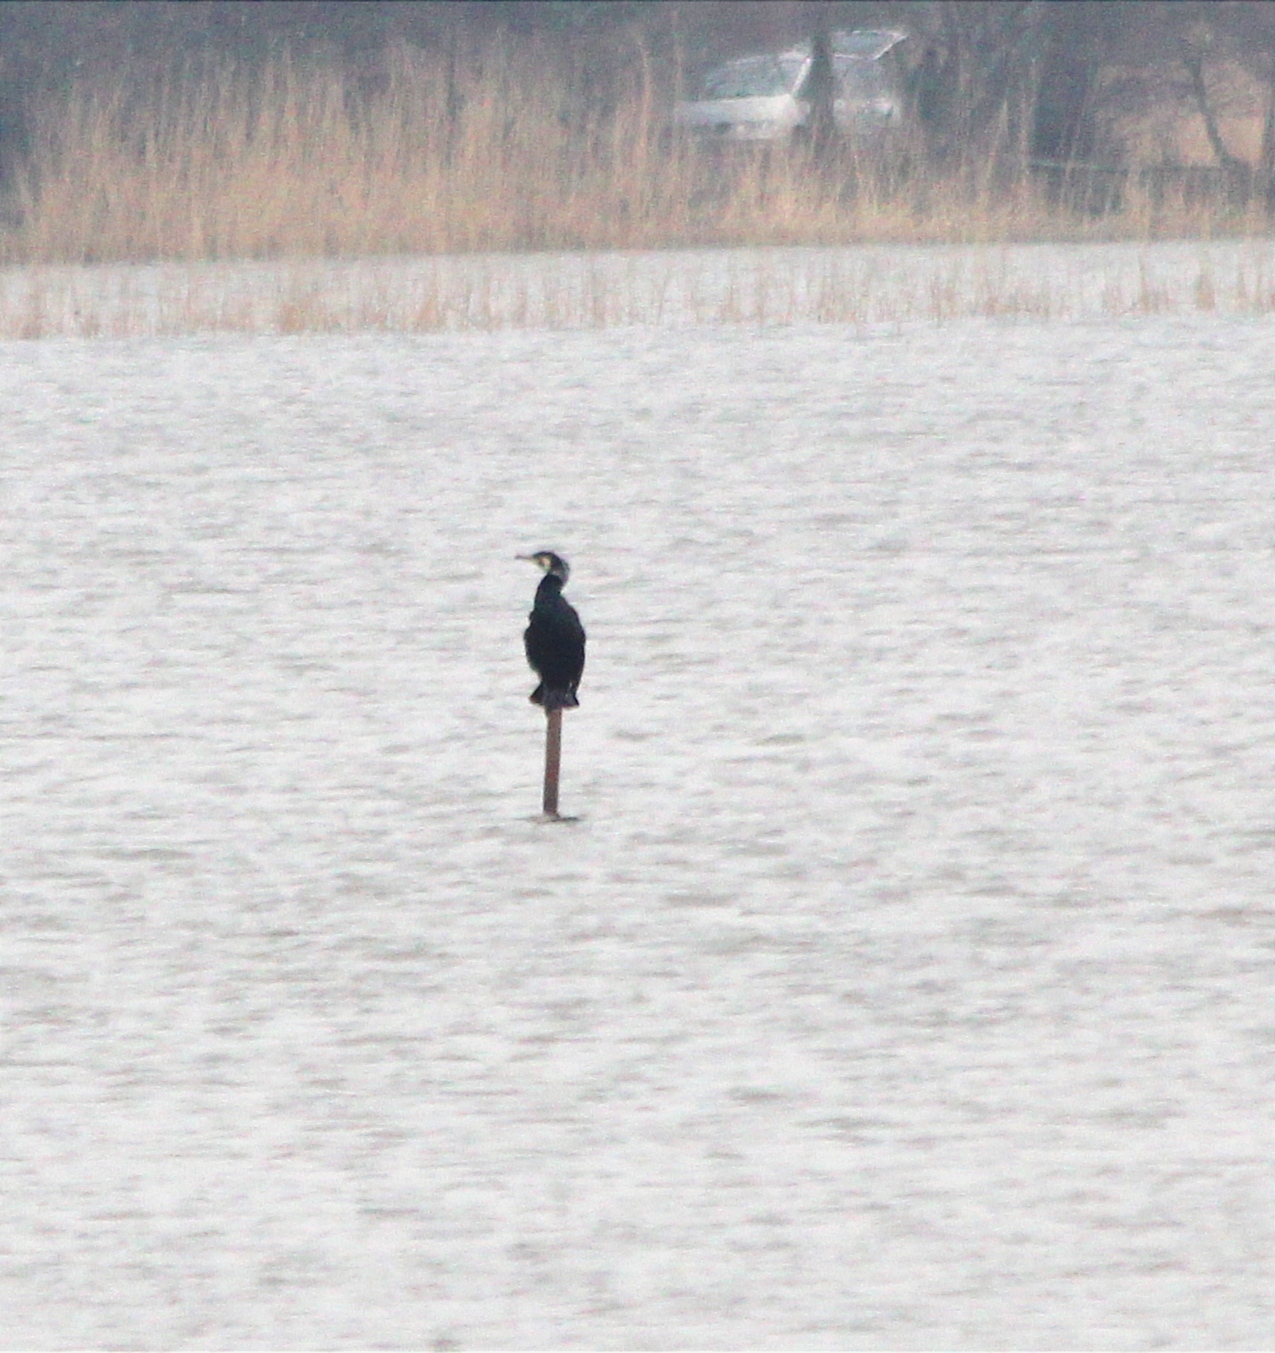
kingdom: Animalia
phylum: Chordata
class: Aves
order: Suliformes
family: Phalacrocoracidae
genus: Phalacrocorax
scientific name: Phalacrocorax carbo
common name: Great cormorant
